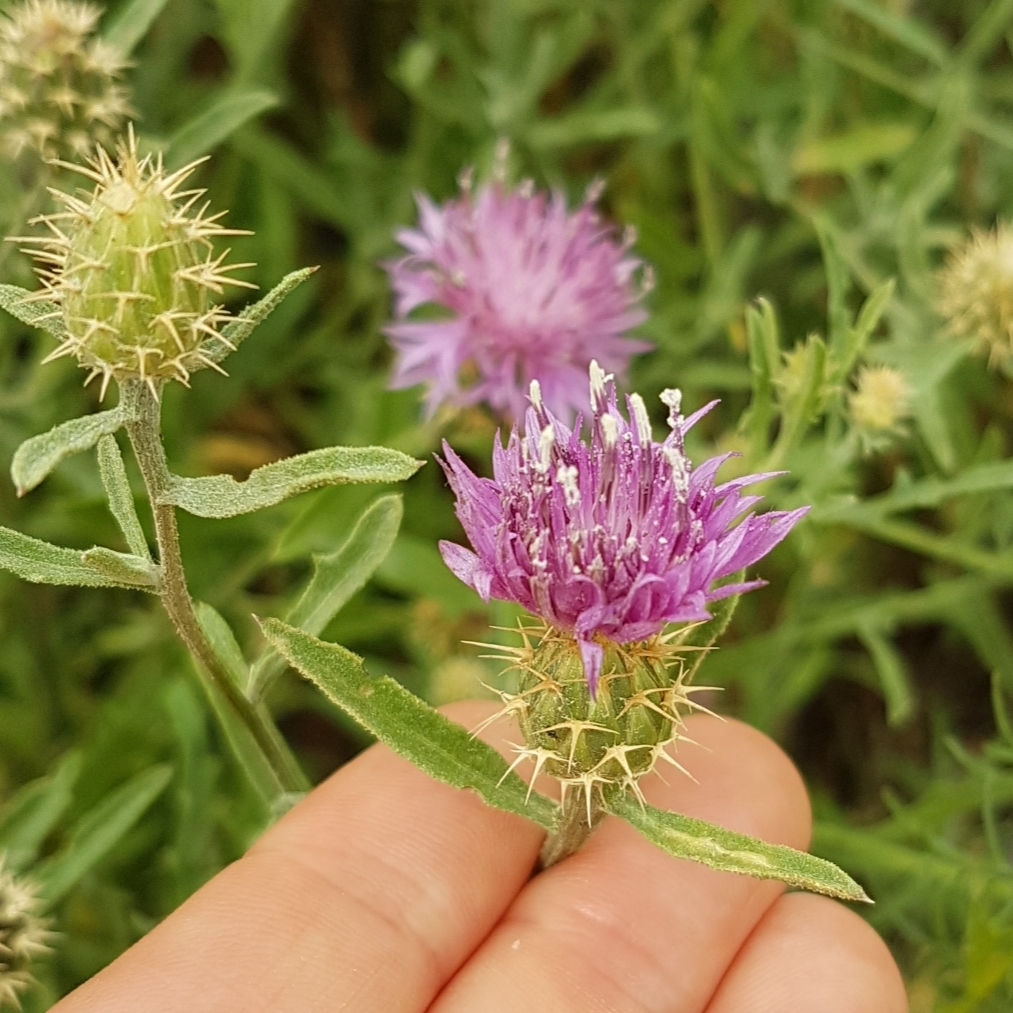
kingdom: Plantae
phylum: Tracheophyta
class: Magnoliopsida
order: Asterales
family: Asteraceae
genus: Centaurea
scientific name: Centaurea aspera
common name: Rough star-thistle
